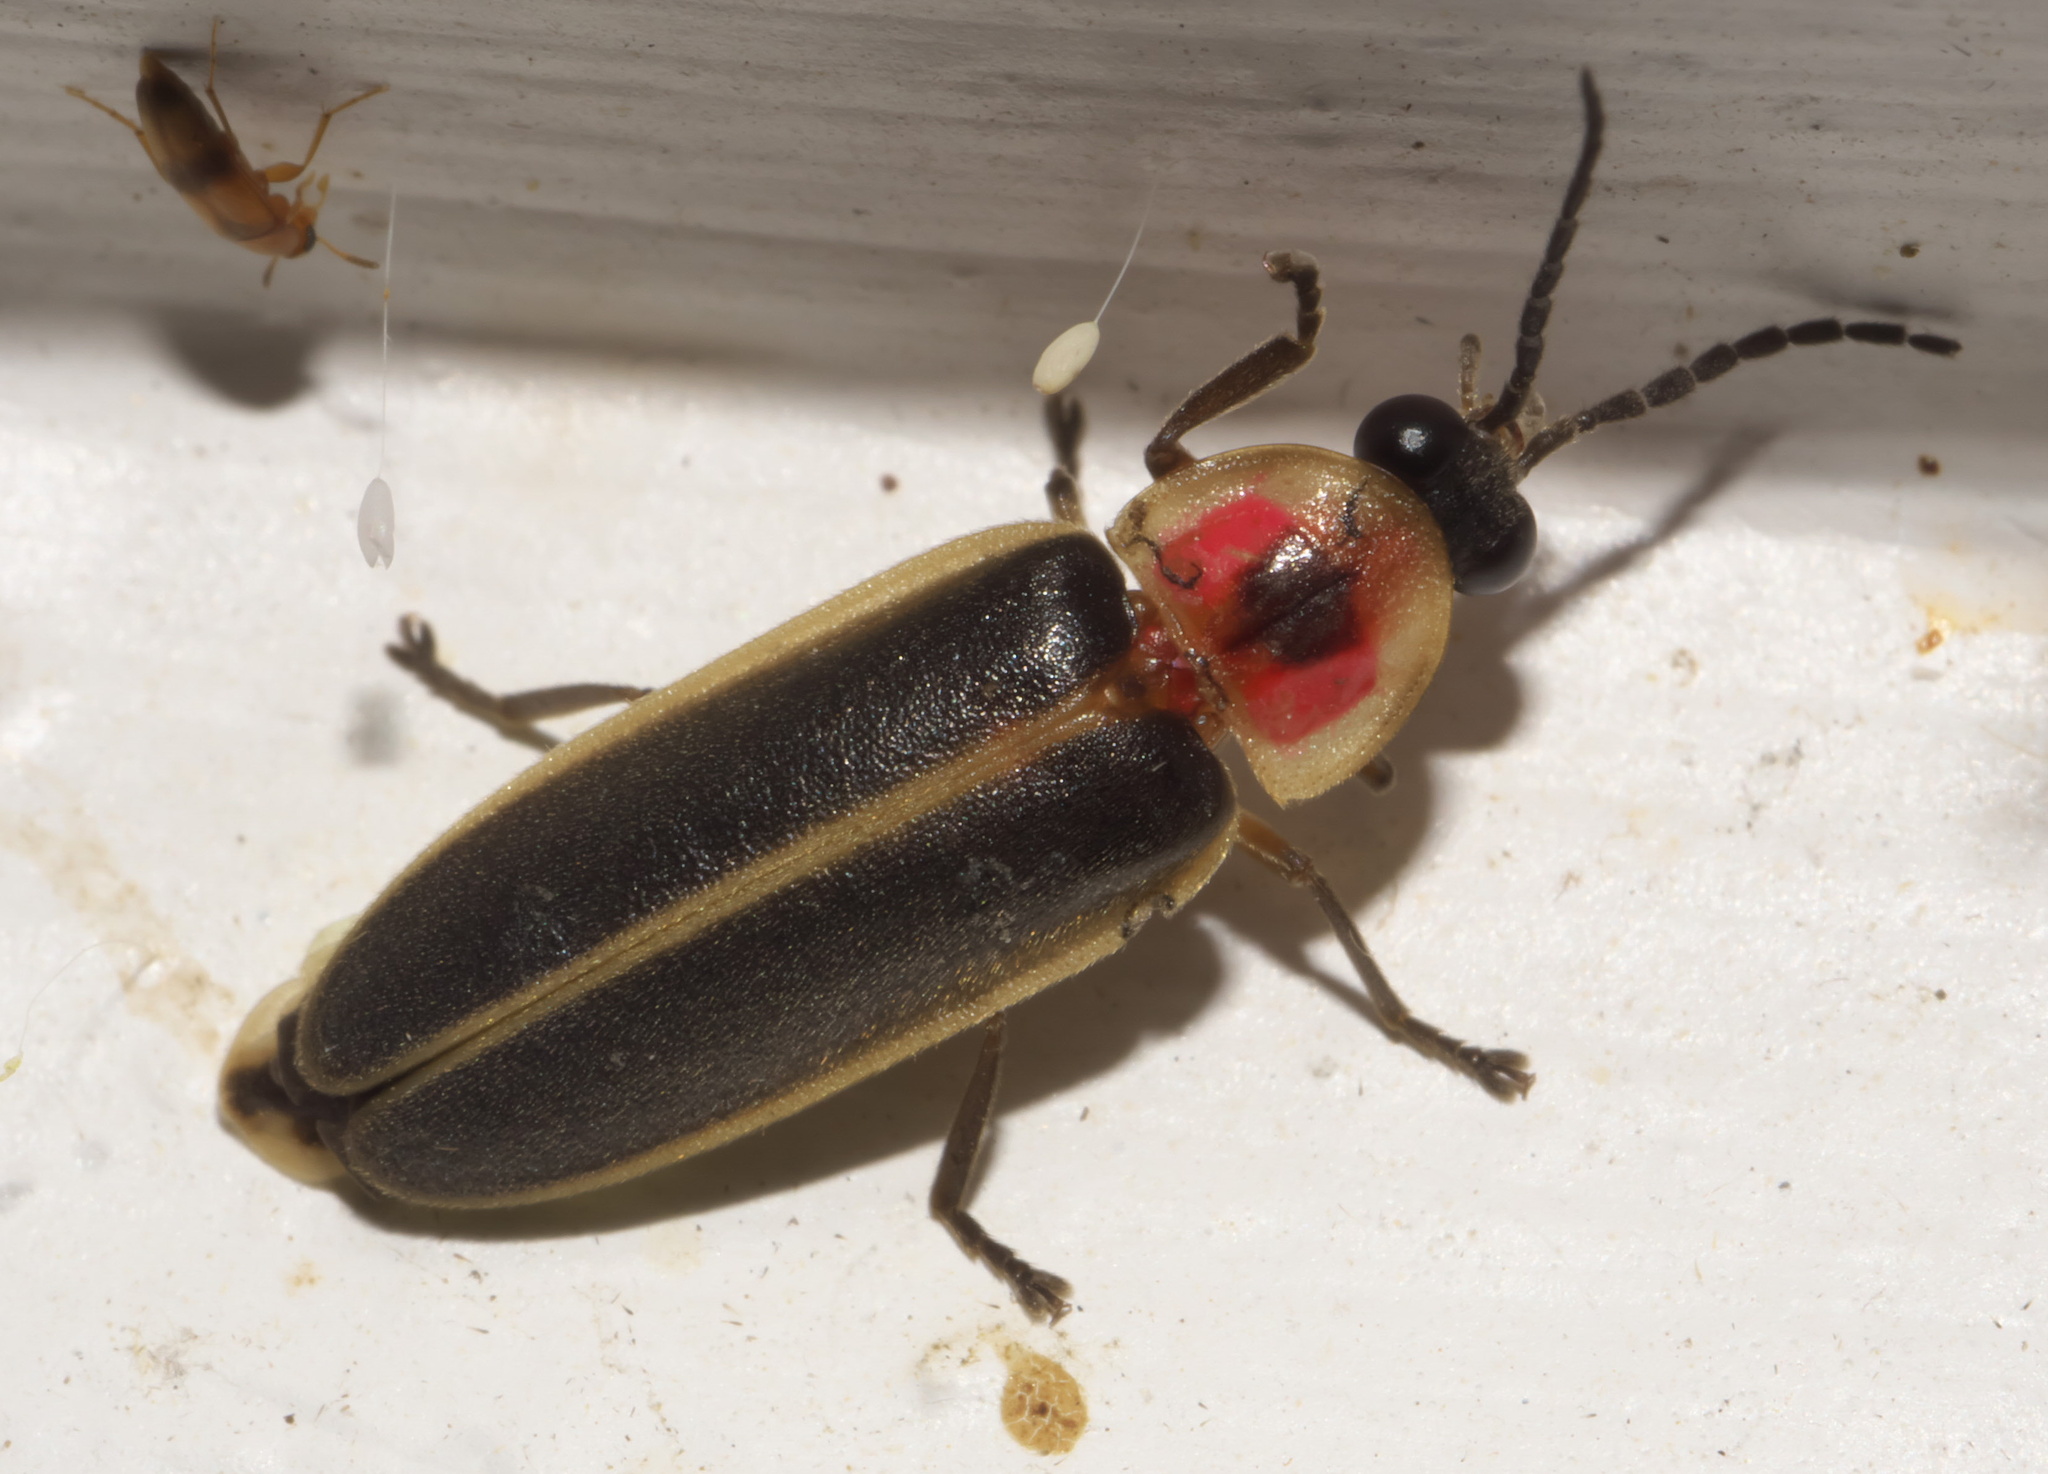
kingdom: Animalia
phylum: Arthropoda
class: Insecta
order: Coleoptera
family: Lampyridae
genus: Photinus
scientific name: Photinus pyralis
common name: Big dipper firefly
